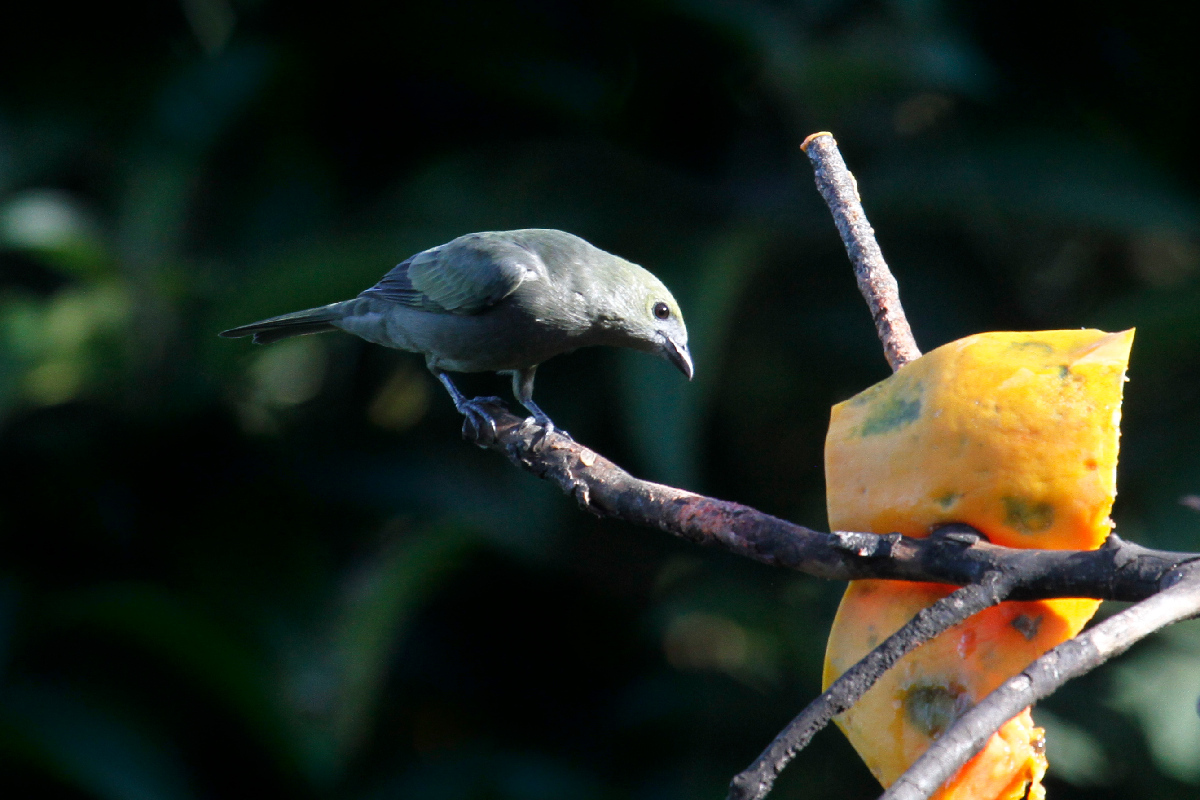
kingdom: Animalia
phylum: Chordata
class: Aves
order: Passeriformes
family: Thraupidae
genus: Thraupis
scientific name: Thraupis palmarum
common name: Palm tanager
